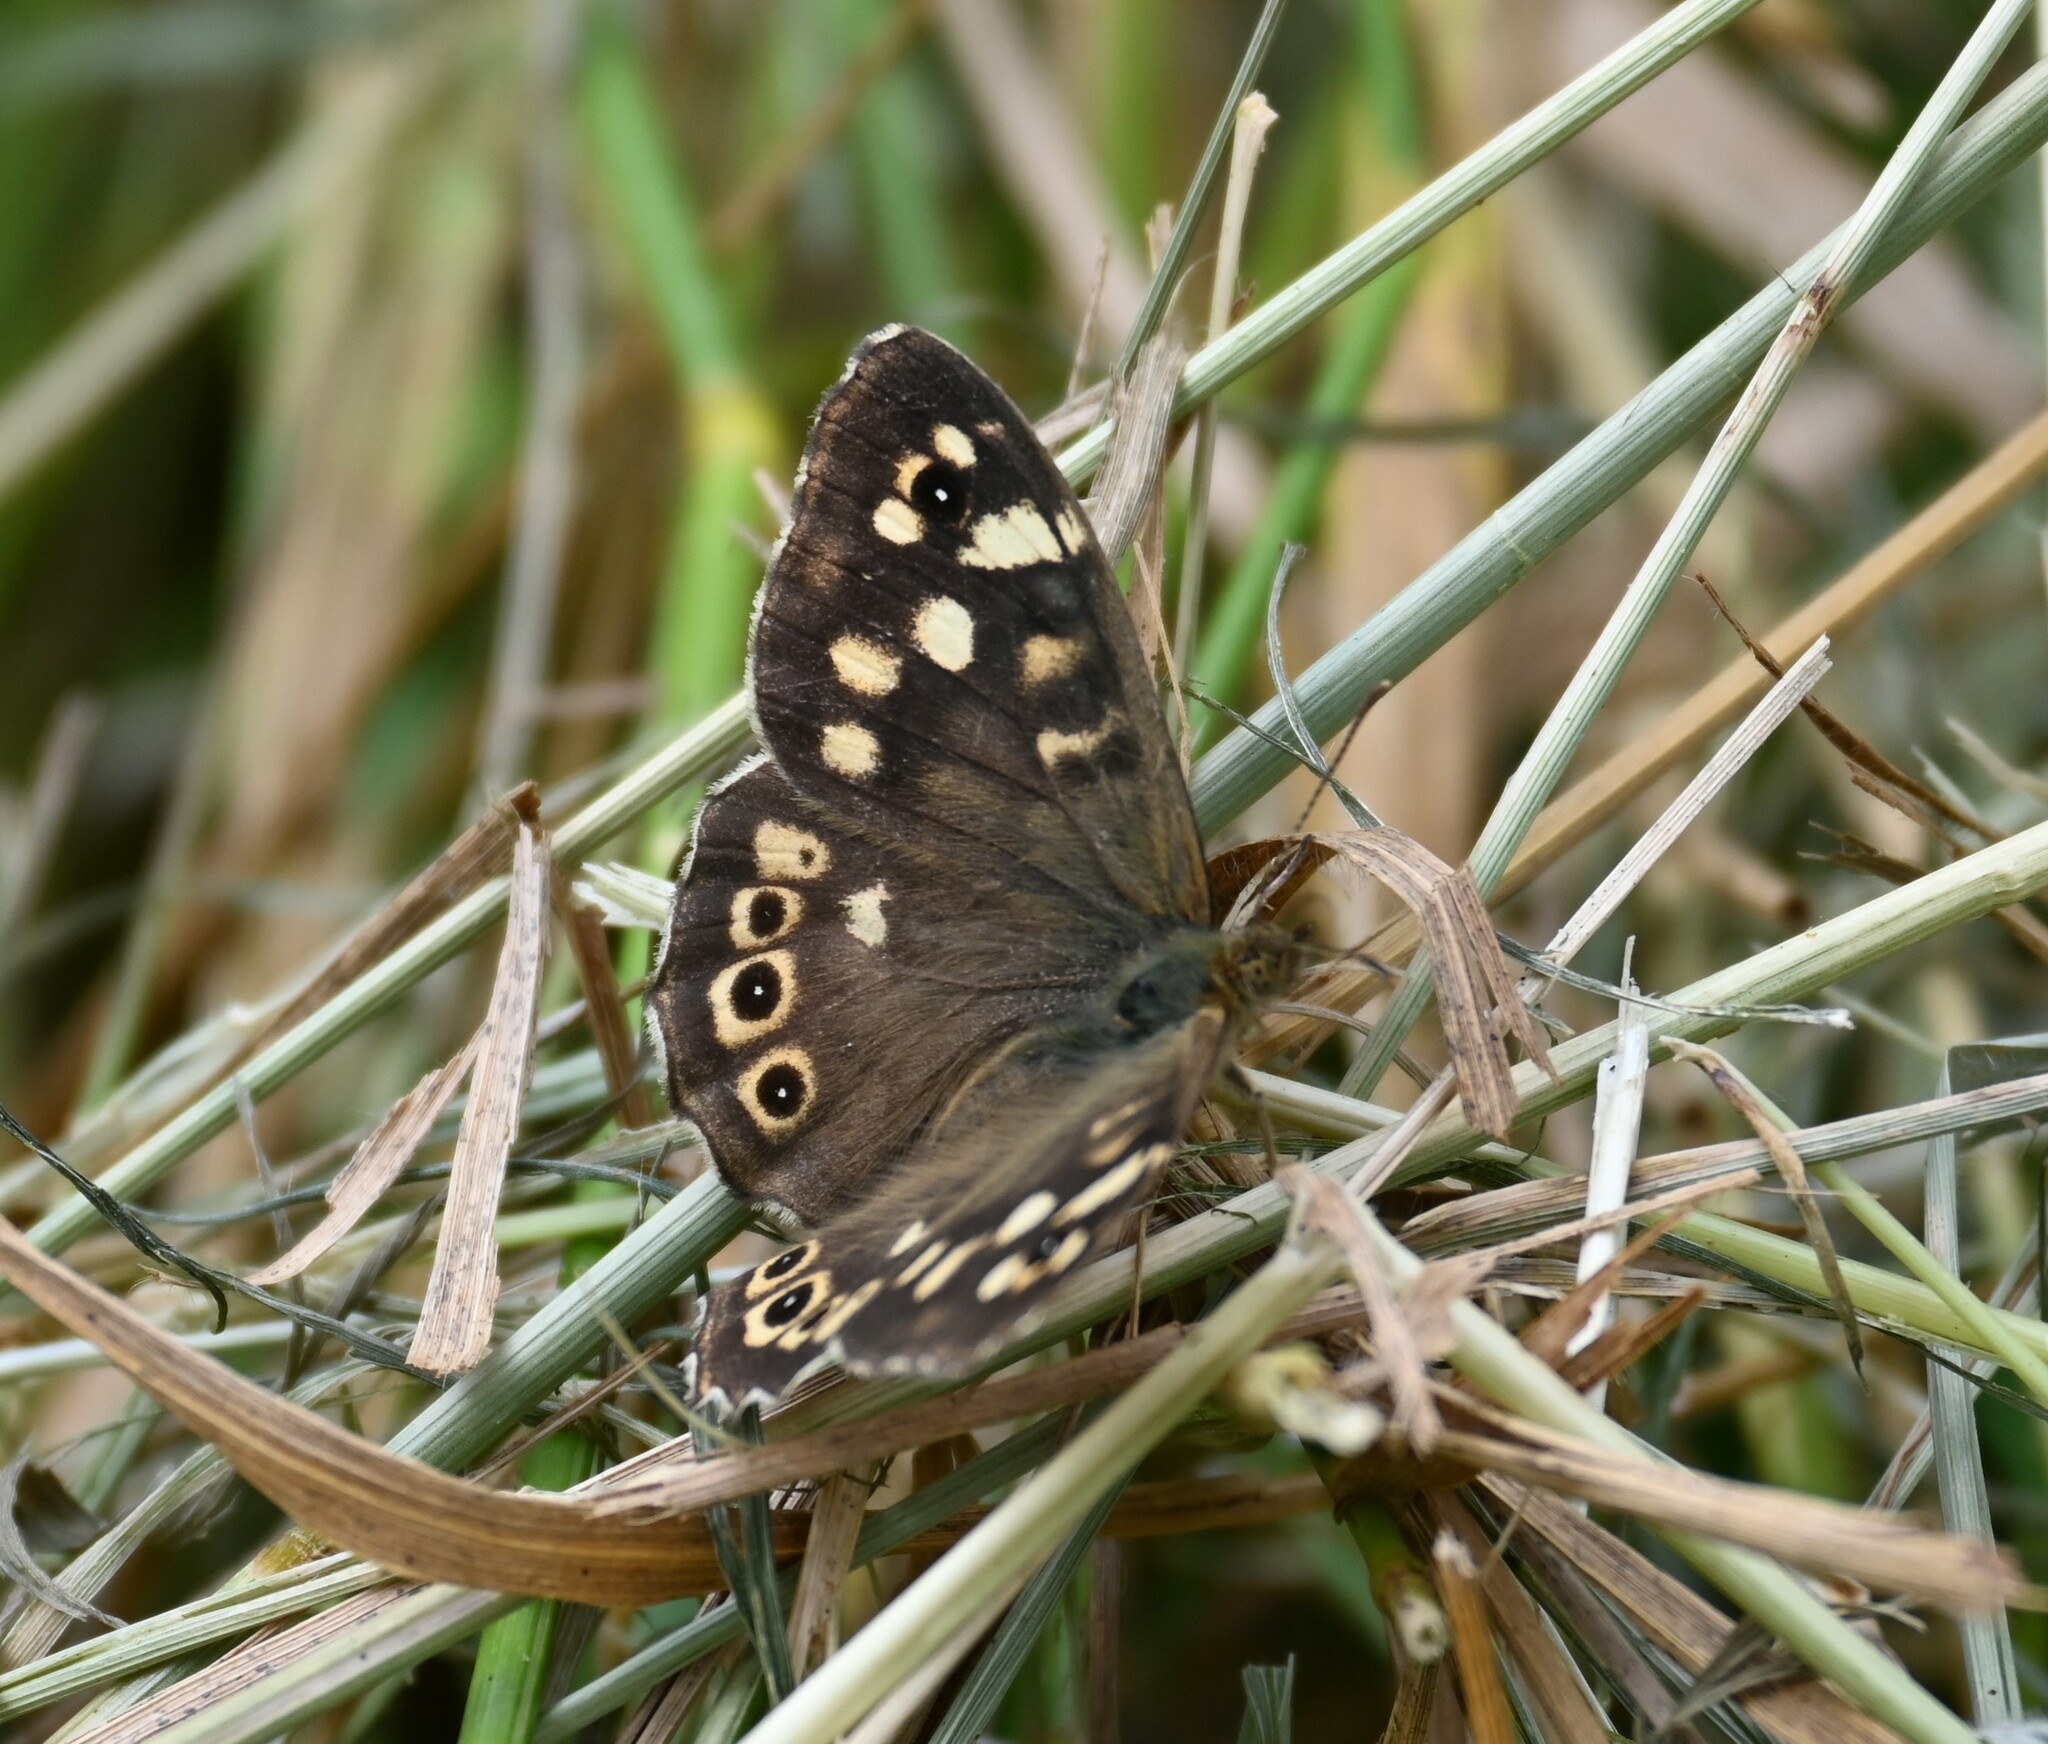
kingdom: Animalia
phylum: Arthropoda
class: Insecta
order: Lepidoptera
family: Nymphalidae
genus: Pararge
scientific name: Pararge aegeria
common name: Speckled wood
